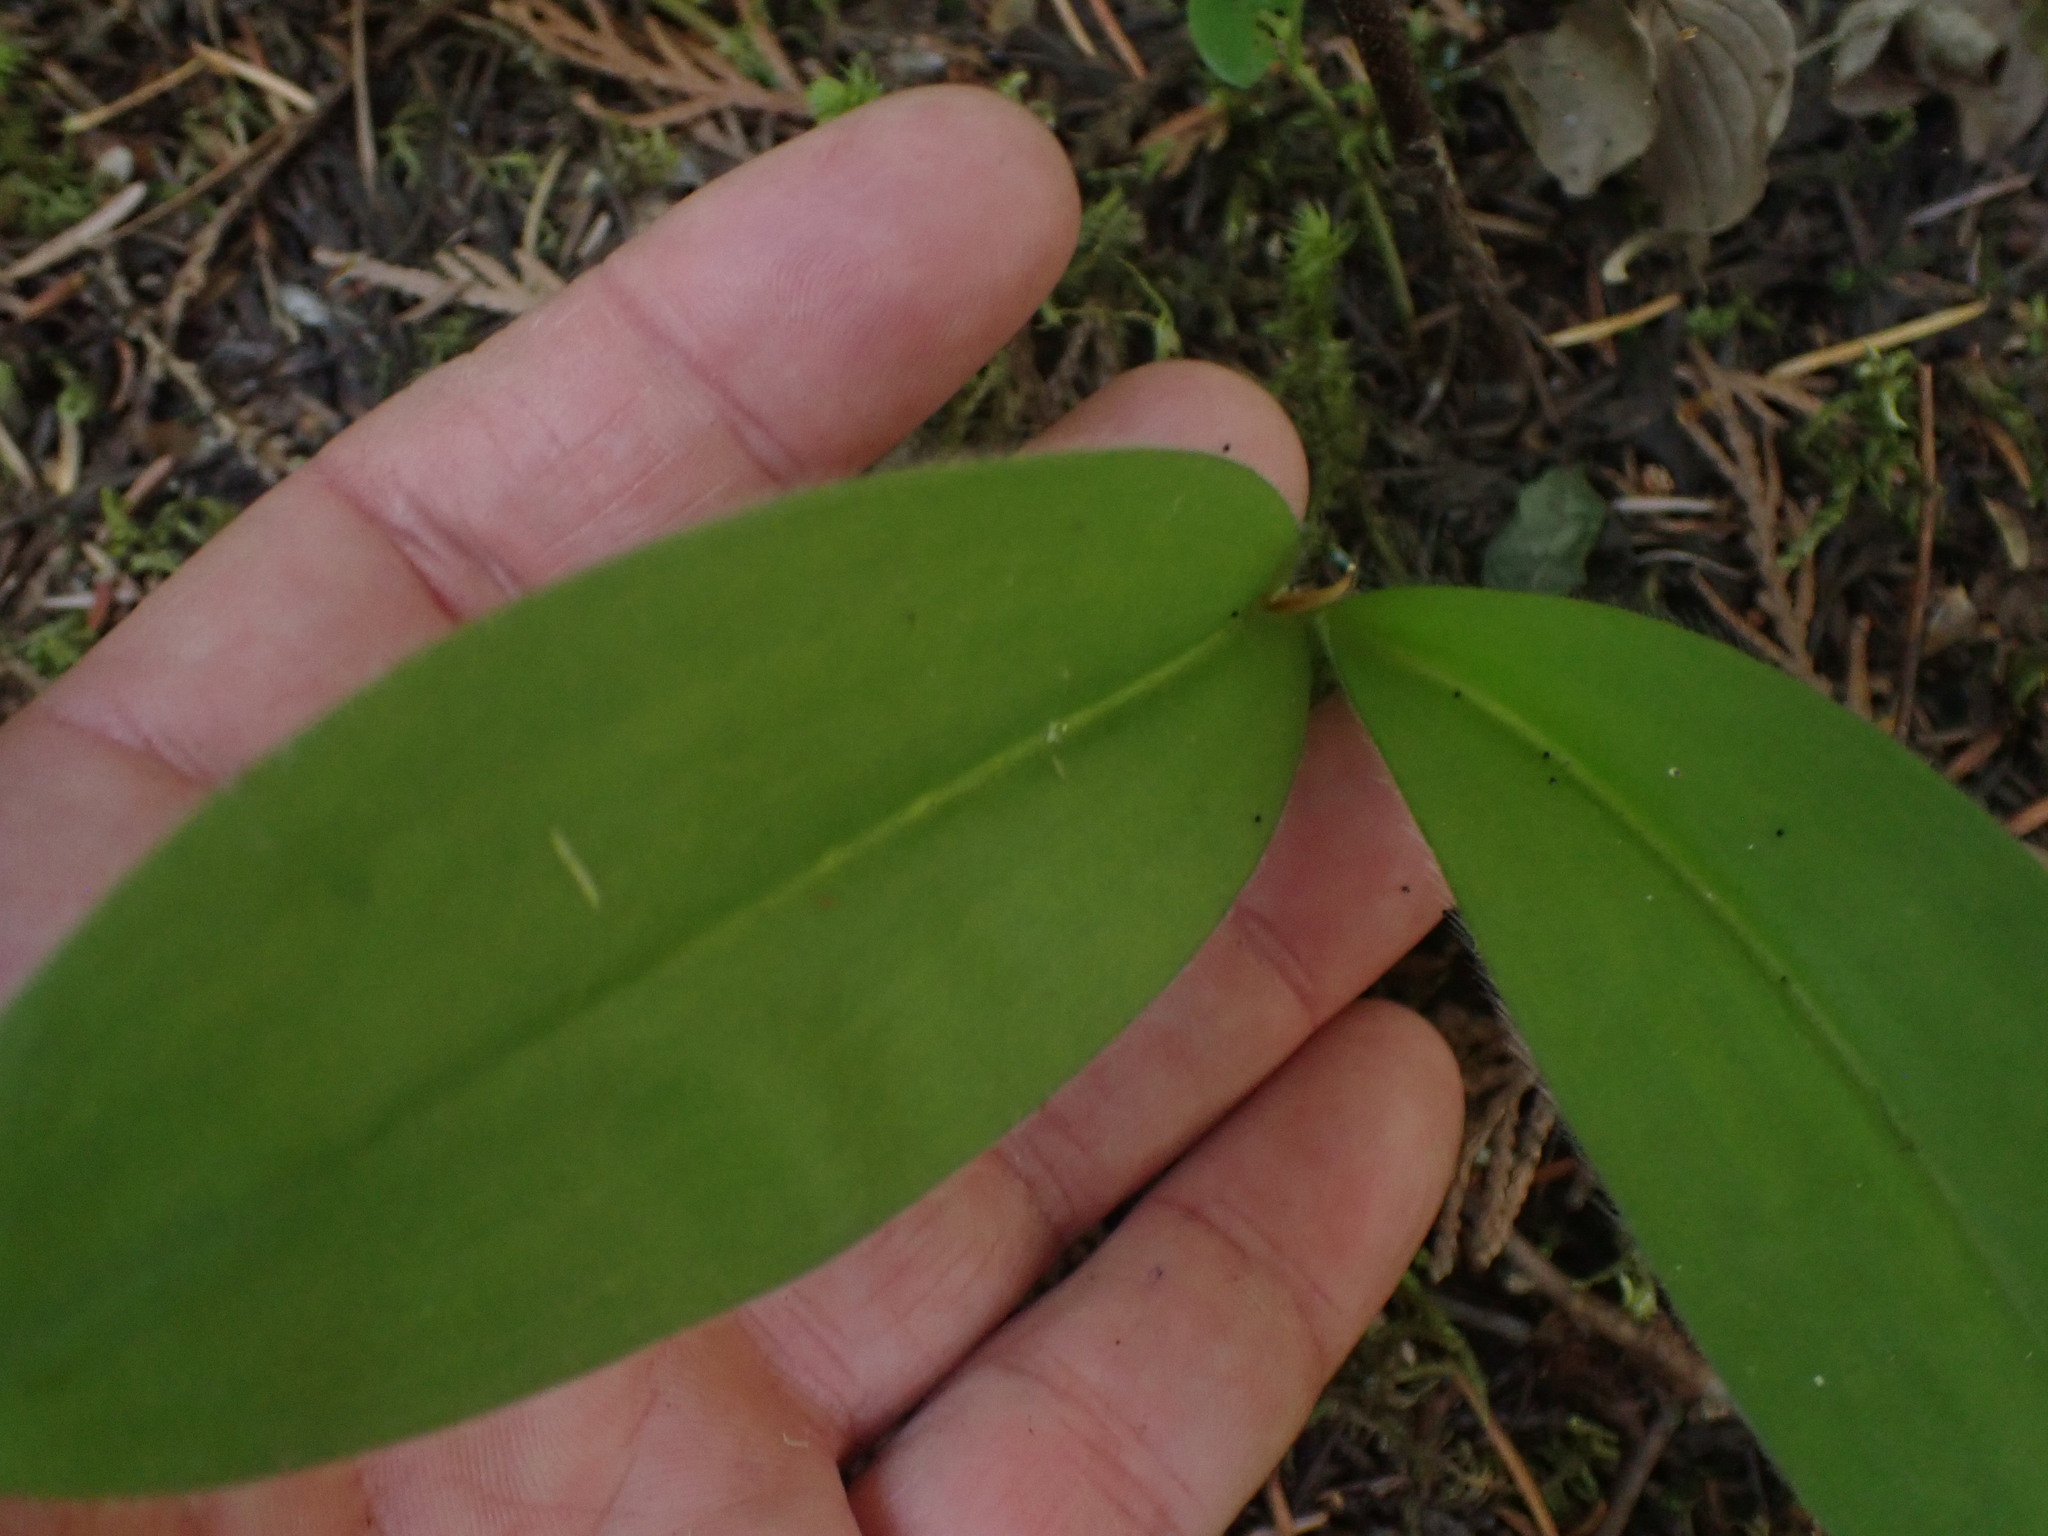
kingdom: Plantae
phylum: Tracheophyta
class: Liliopsida
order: Liliales
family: Liliaceae
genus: Clintonia
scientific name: Clintonia uniflora
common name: Queen's cup
